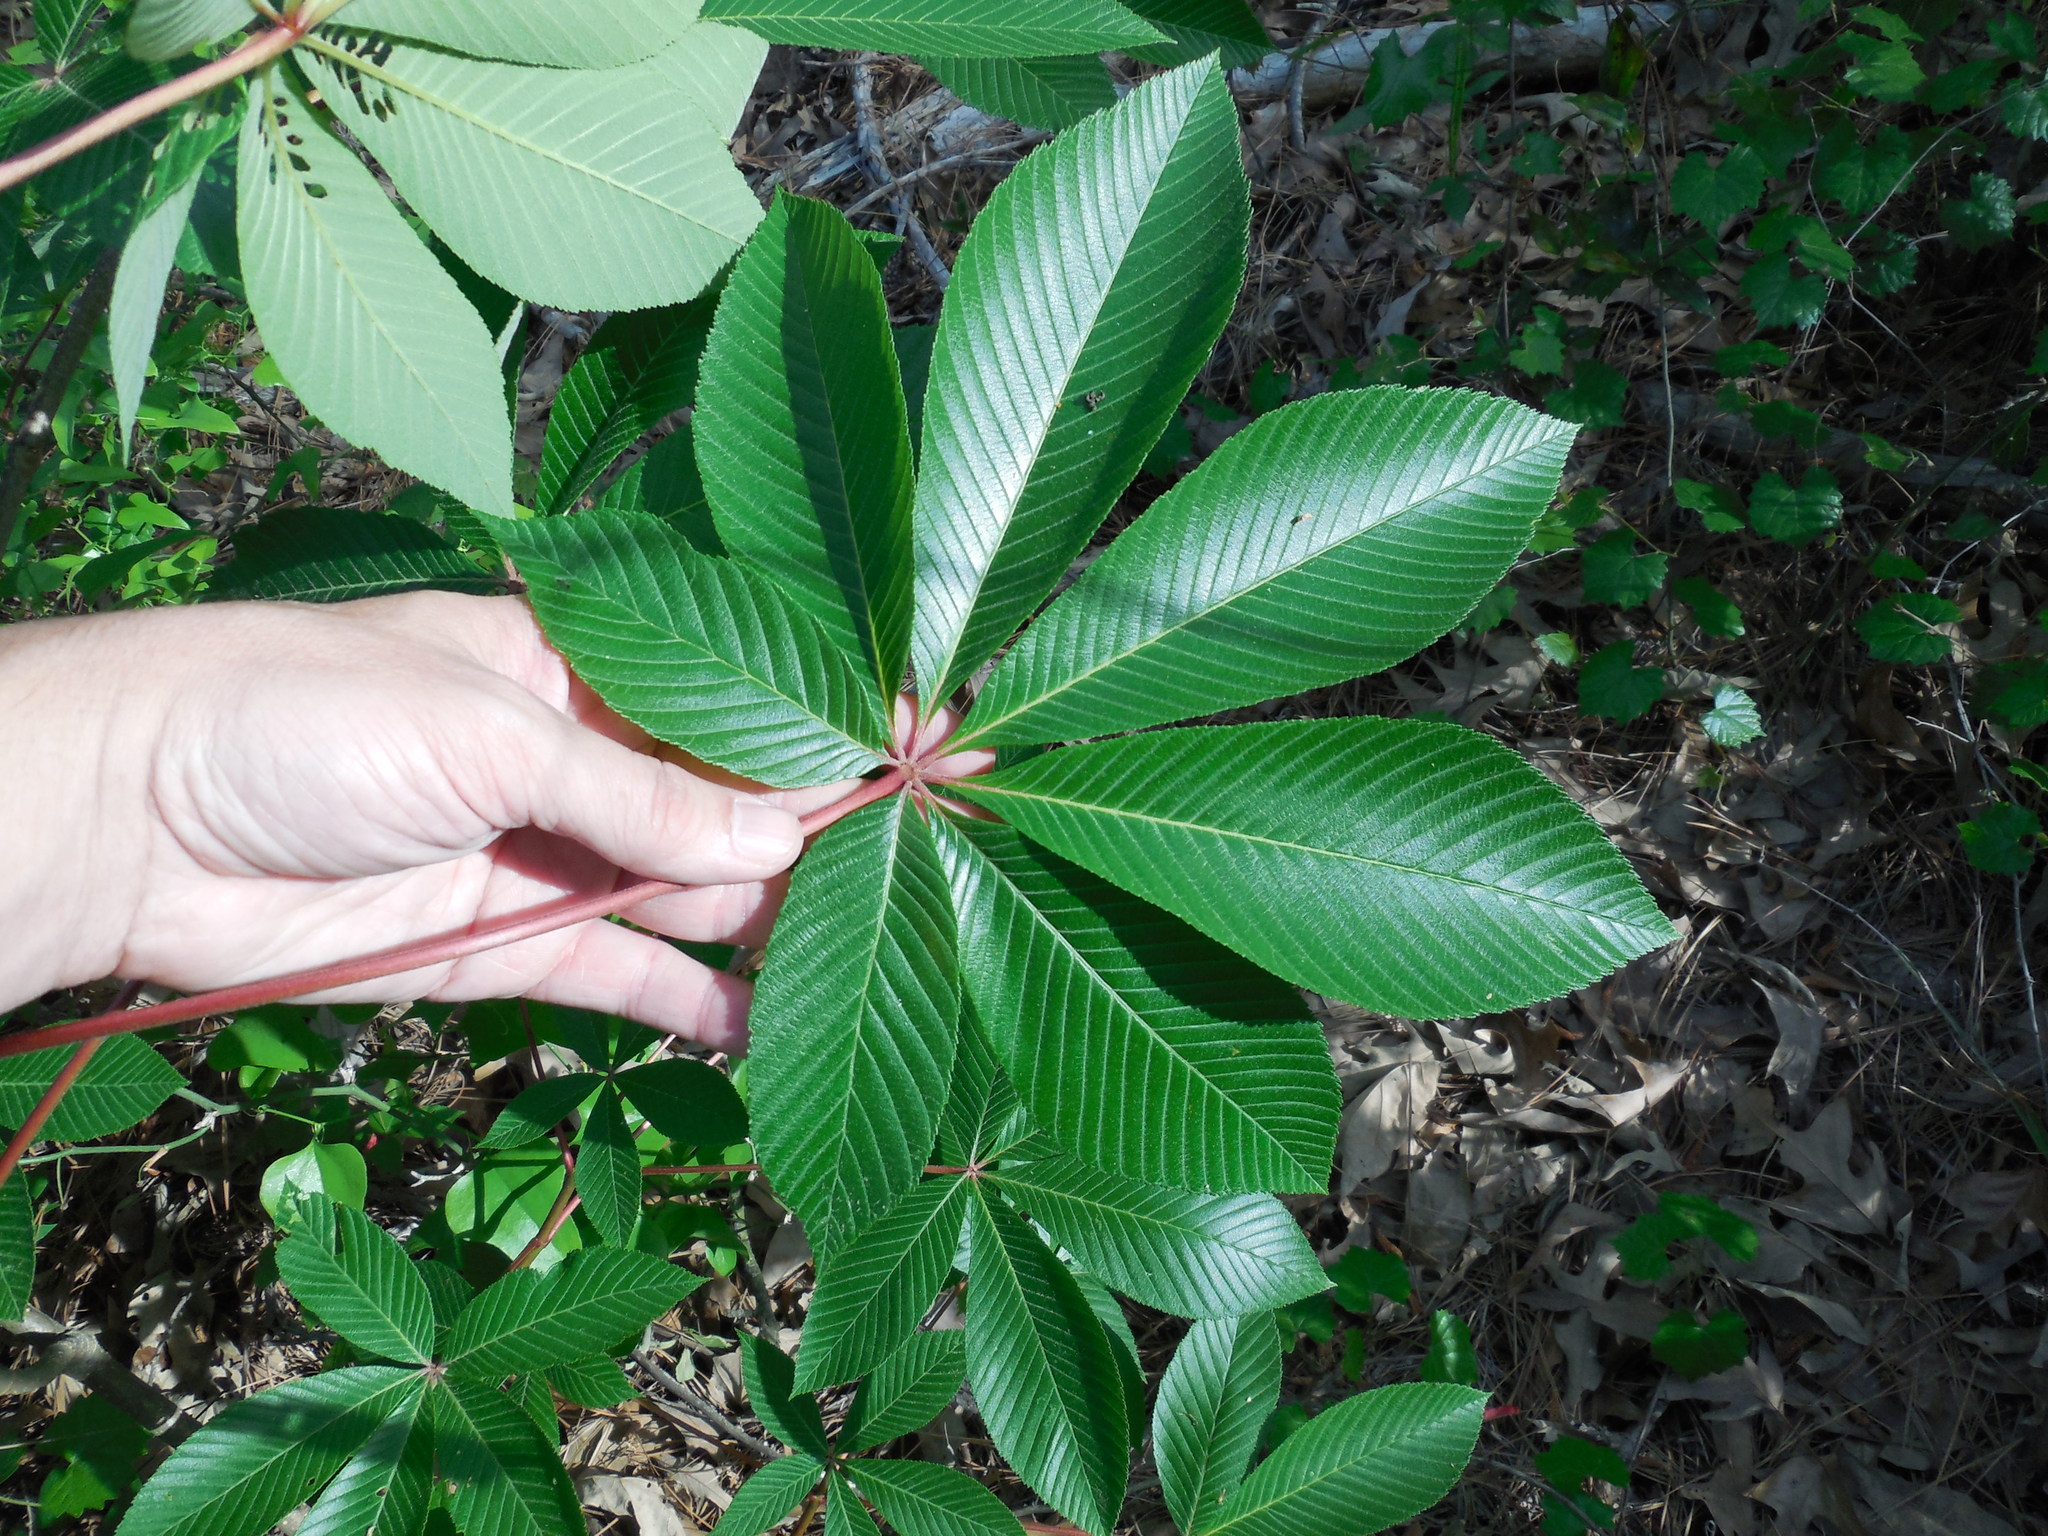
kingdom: Plantae
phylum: Tracheophyta
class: Magnoliopsida
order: Sapindales
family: Sapindaceae
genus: Aesculus
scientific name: Aesculus pavia
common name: Red buckeye
